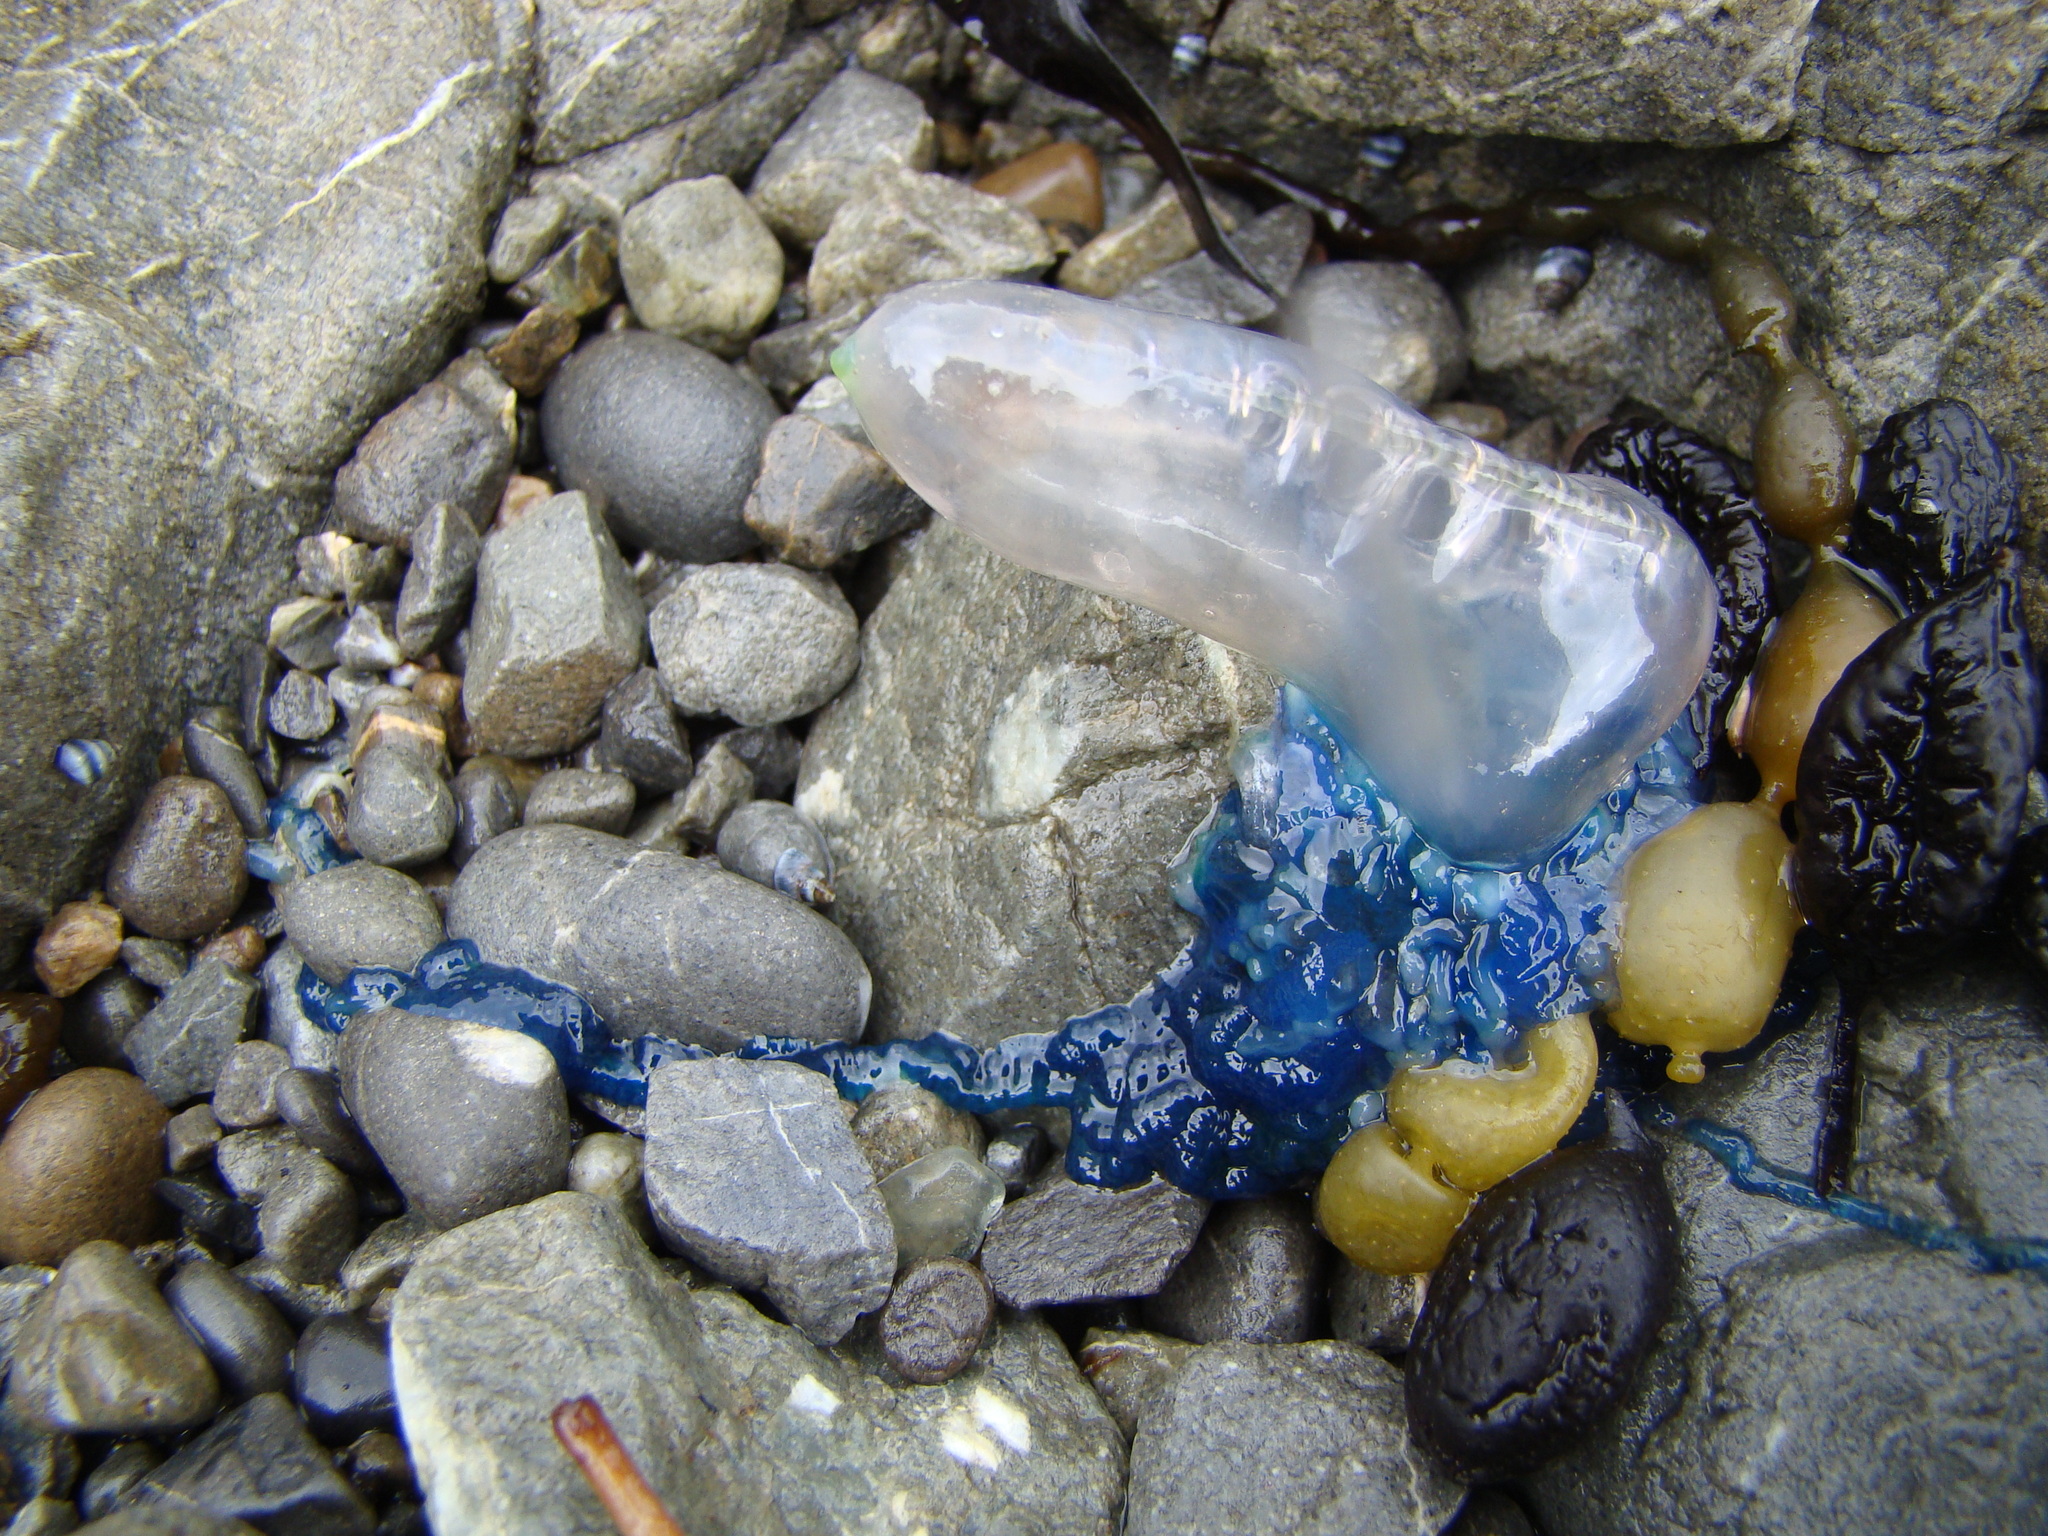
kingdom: Animalia
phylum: Cnidaria
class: Hydrozoa
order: Siphonophorae
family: Physaliidae
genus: Physalia
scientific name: Physalia physalis
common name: Portuguese man-of-war
